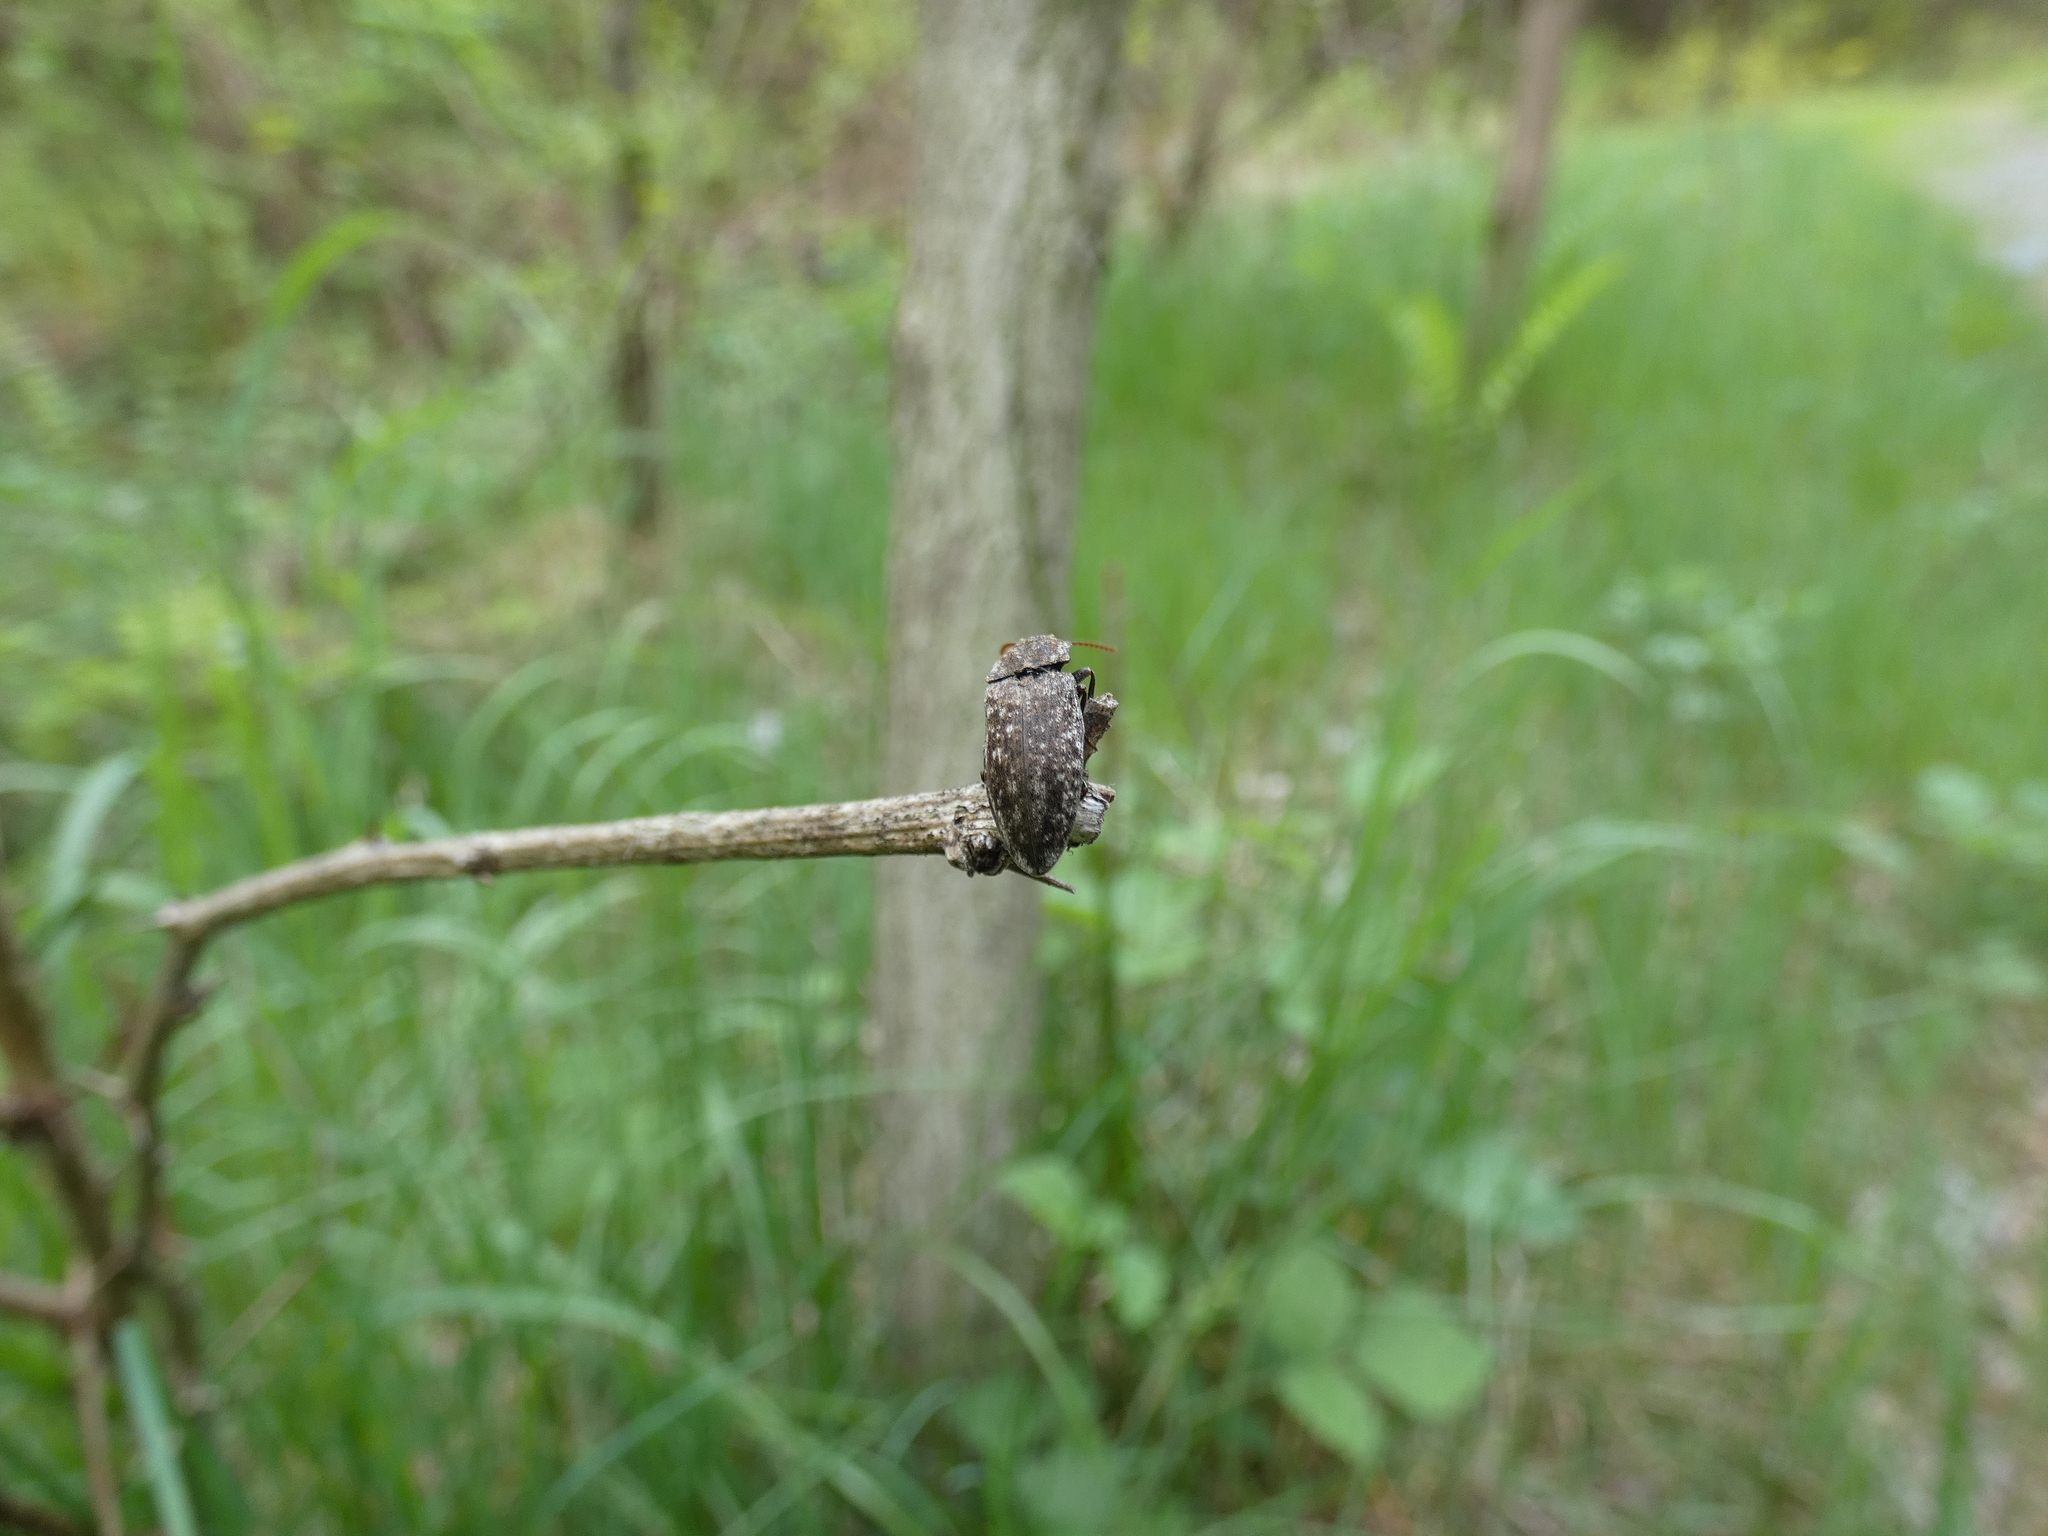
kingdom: Animalia
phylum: Arthropoda
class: Insecta
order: Coleoptera
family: Elateridae
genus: Agrypnus
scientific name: Agrypnus murinus
